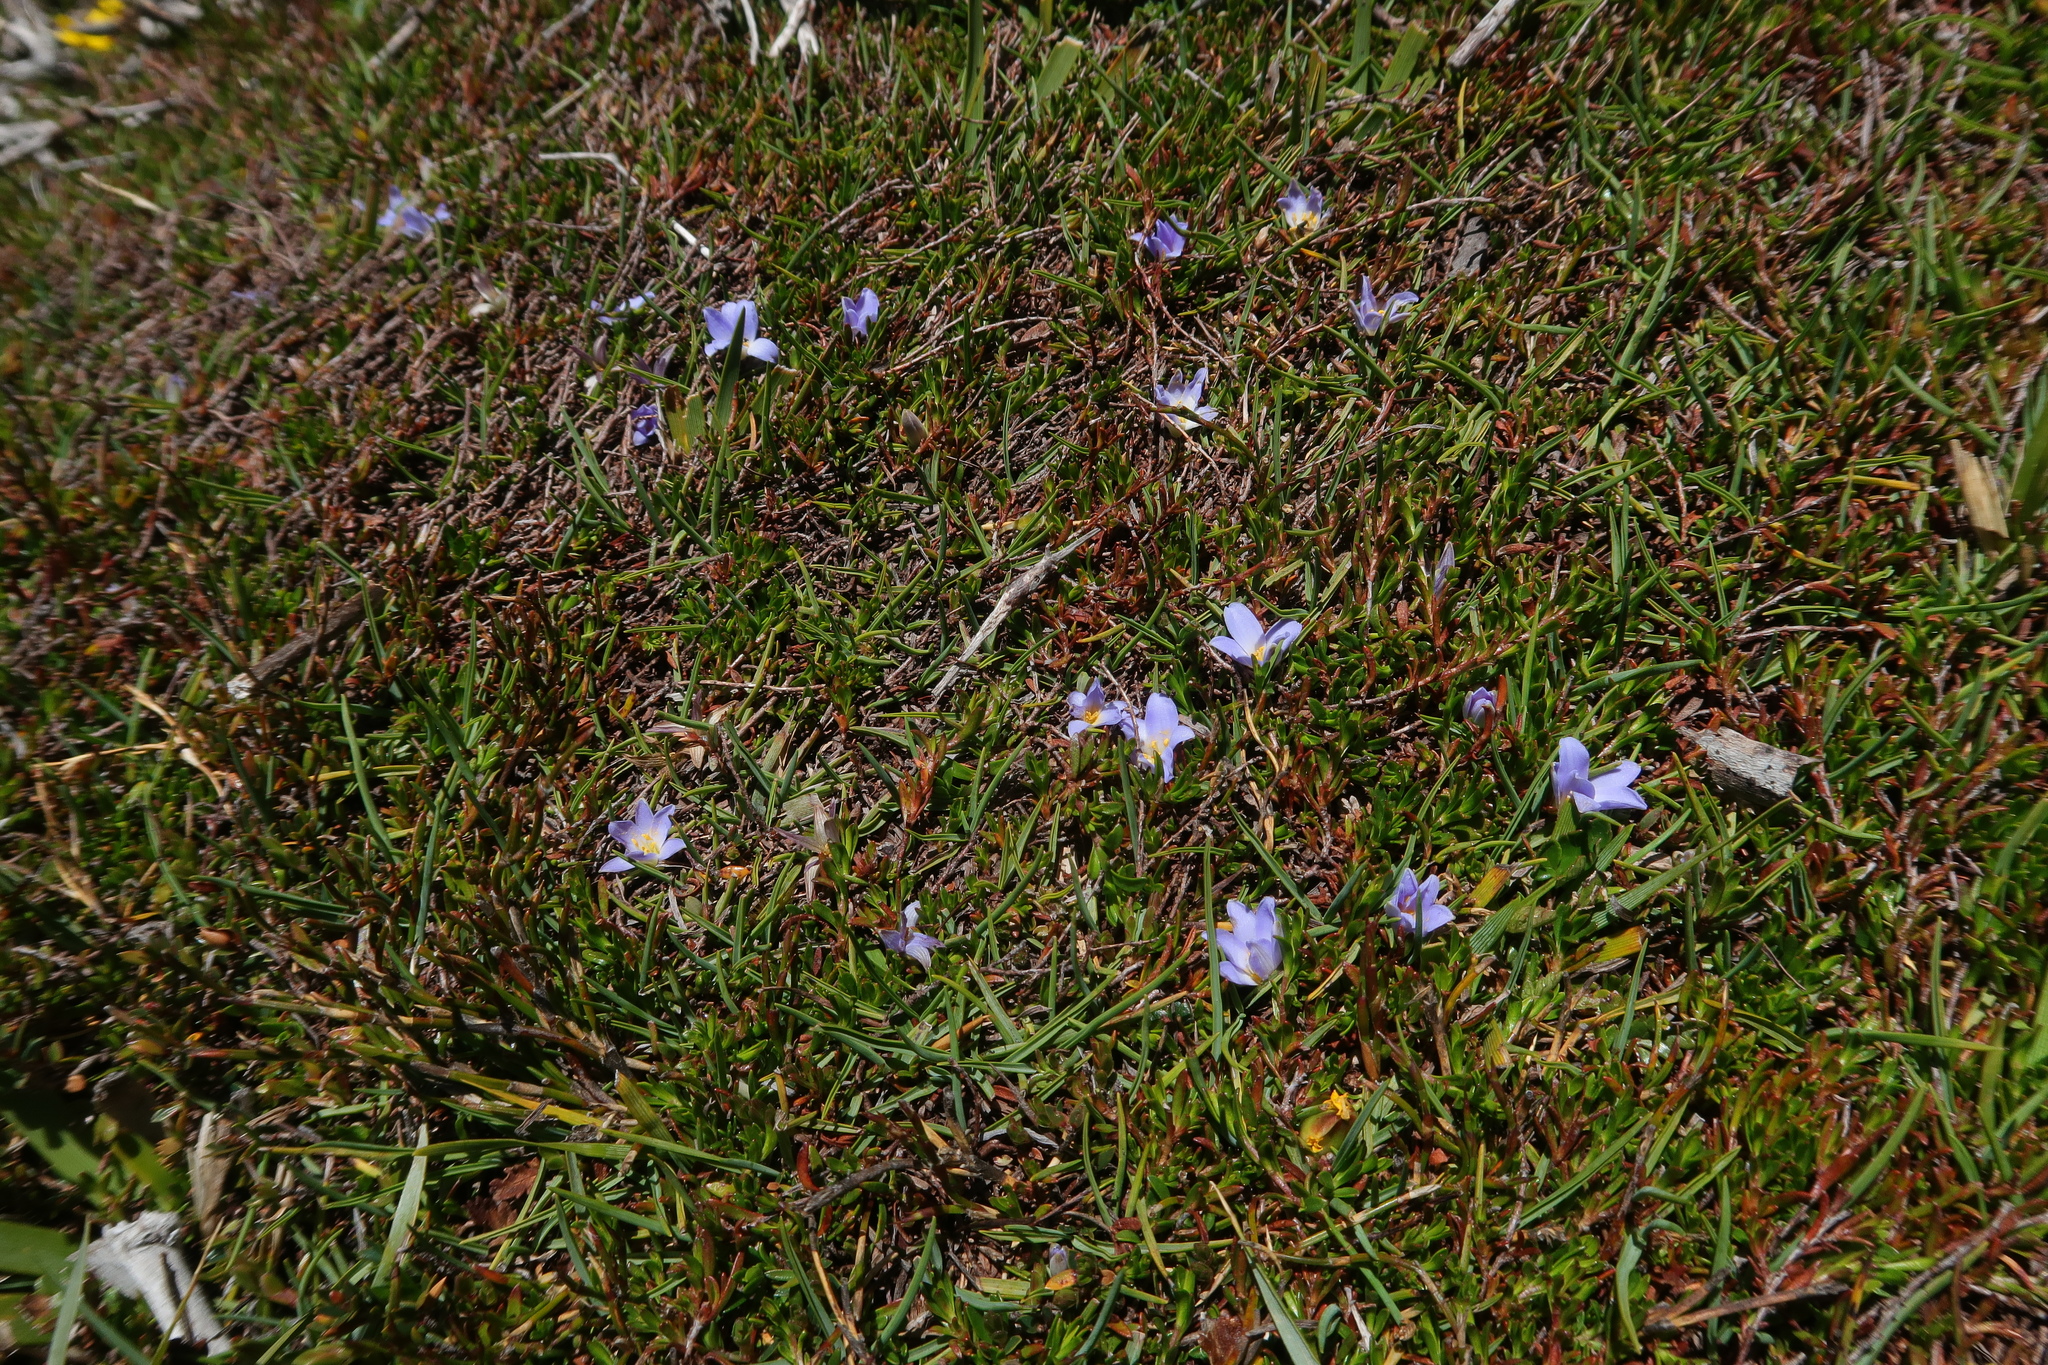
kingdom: Plantae
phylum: Tracheophyta
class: Liliopsida
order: Asparagales
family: Asphodelaceae
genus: Herpolirion
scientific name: Herpolirion novae-zelandiae
